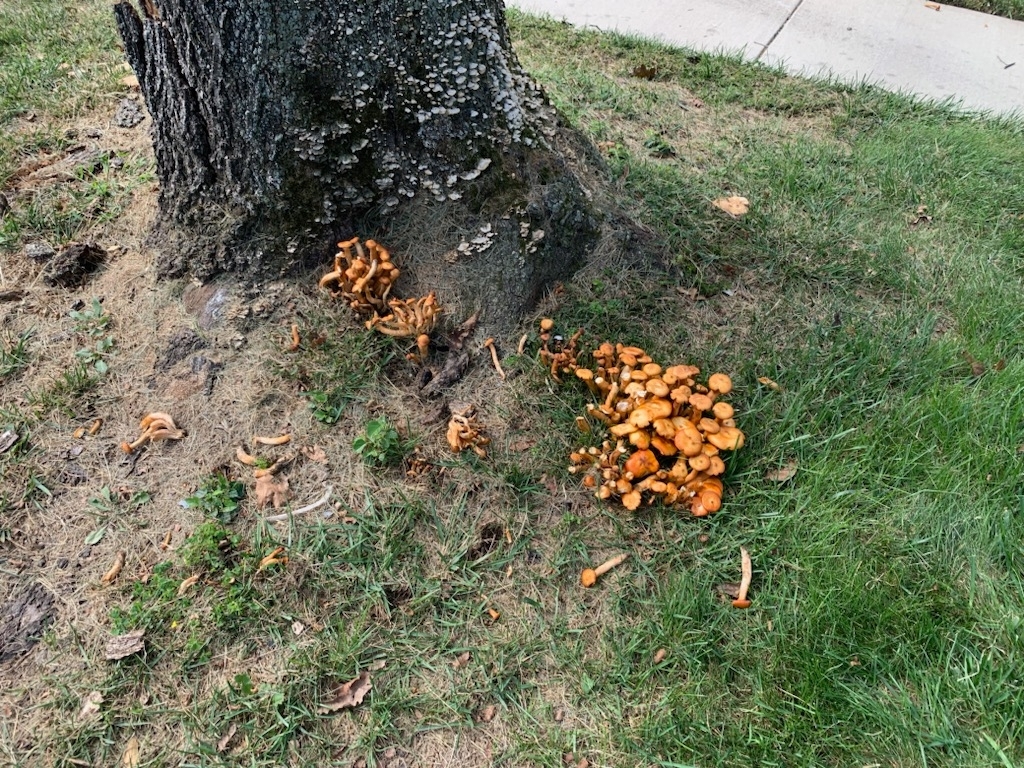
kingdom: Fungi
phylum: Basidiomycota
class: Agaricomycetes
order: Agaricales
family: Omphalotaceae
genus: Omphalotus
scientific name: Omphalotus illudens
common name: Jack o lantern
